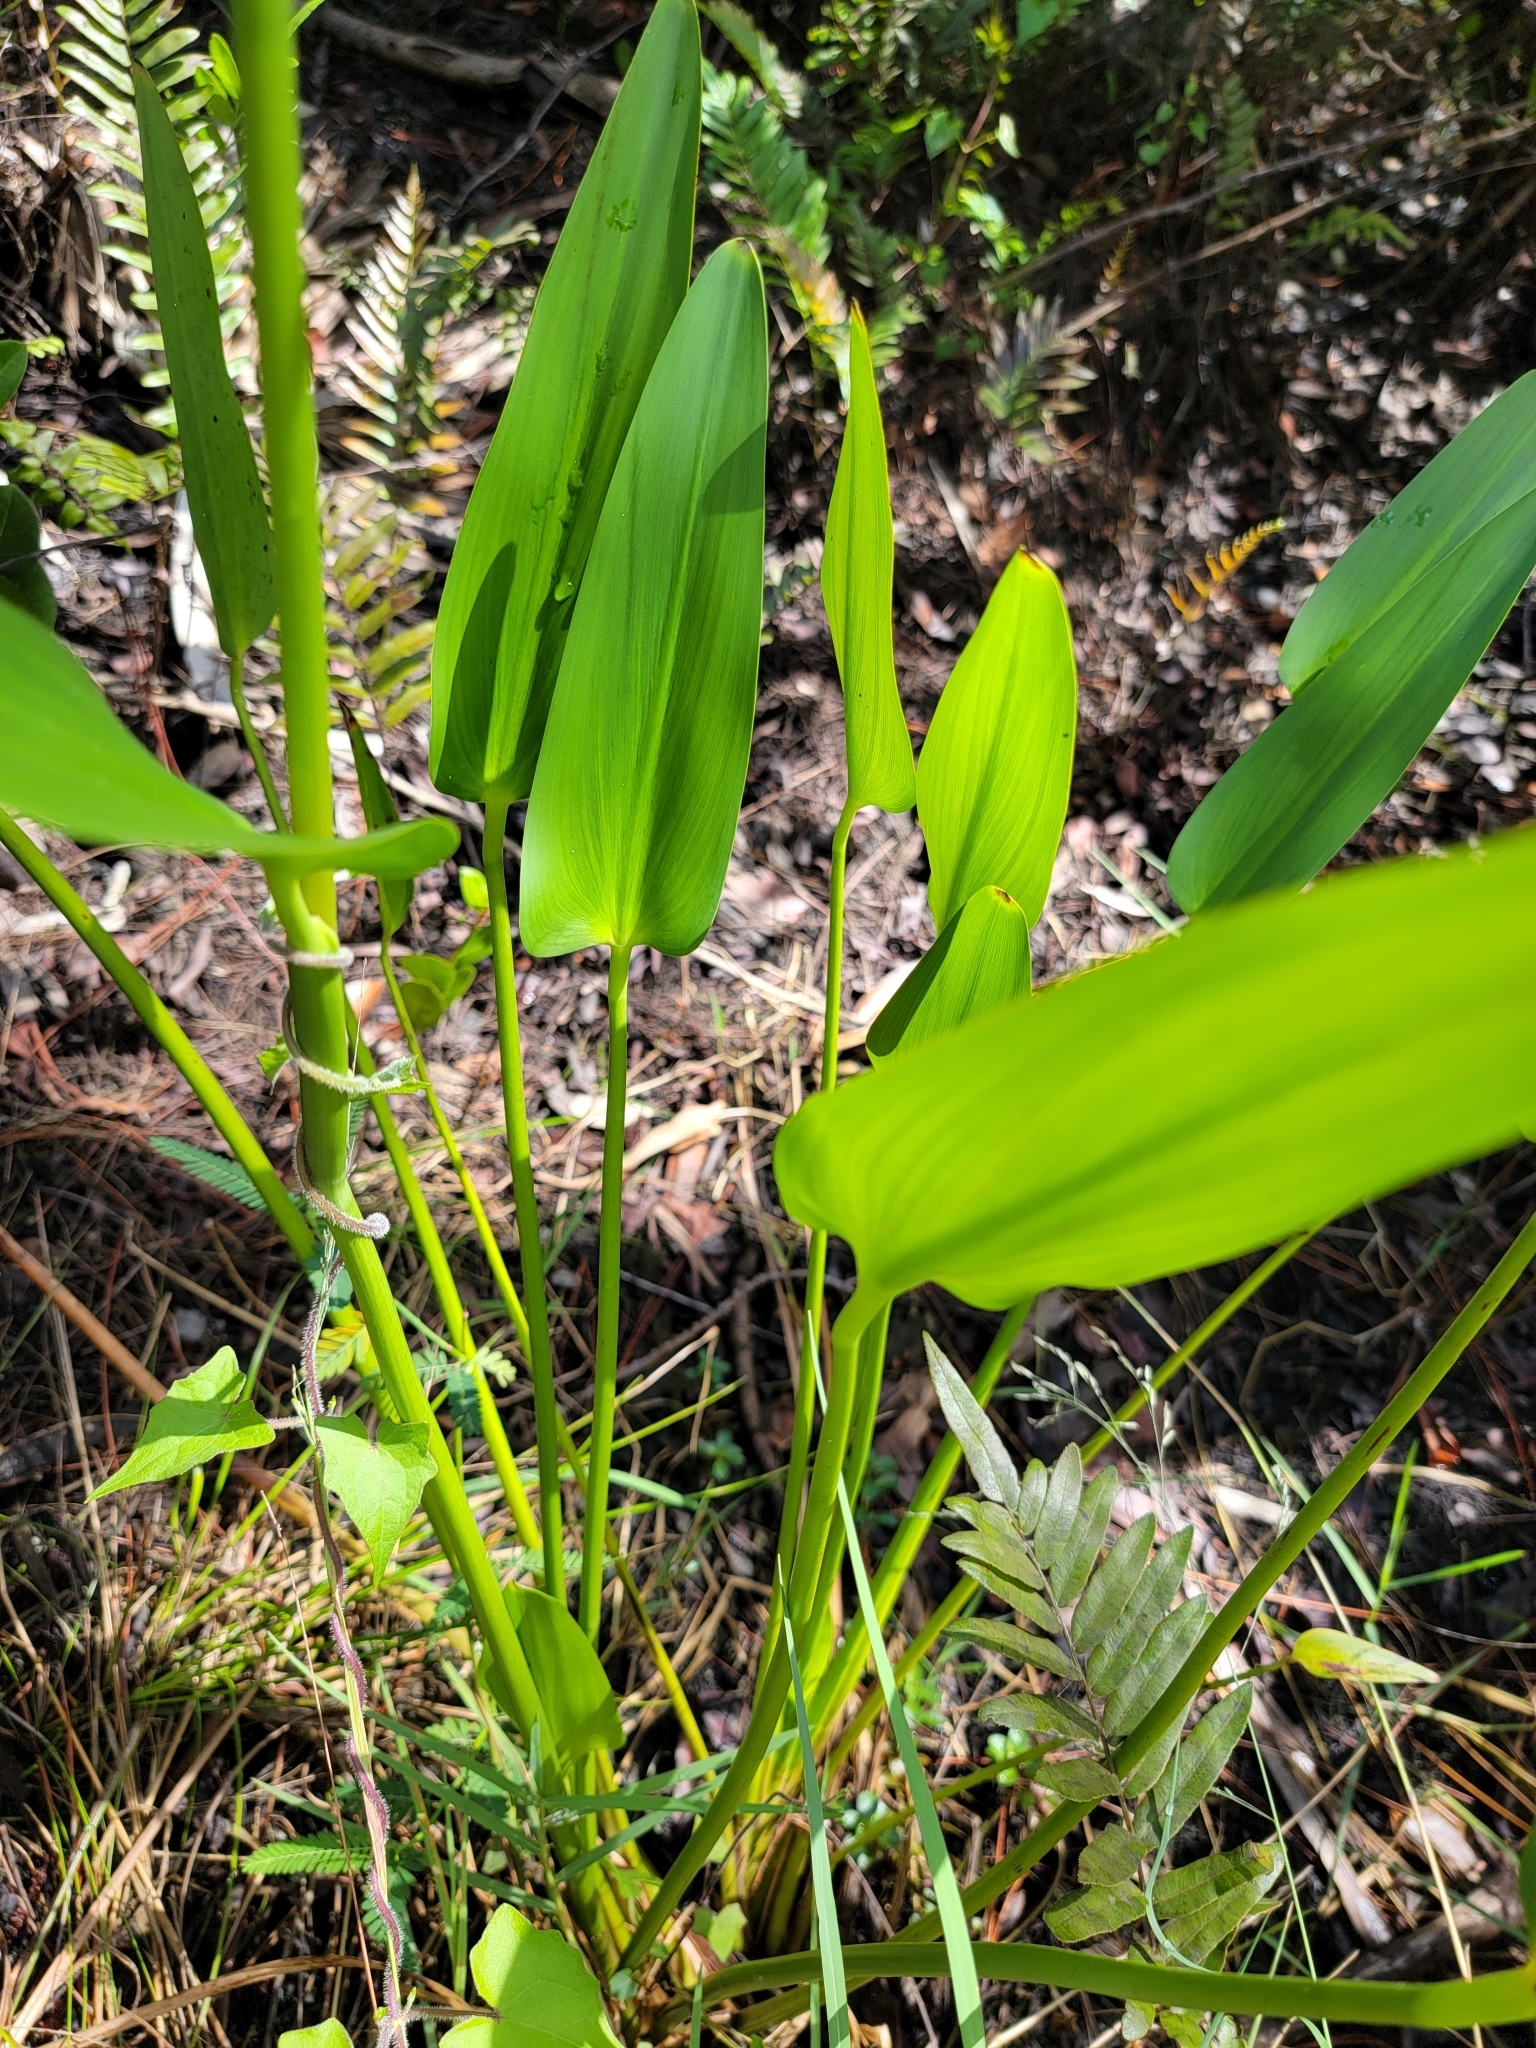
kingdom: Plantae
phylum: Tracheophyta
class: Liliopsida
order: Commelinales
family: Pontederiaceae
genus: Pontederia
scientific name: Pontederia cordata
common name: Pickerelweed
